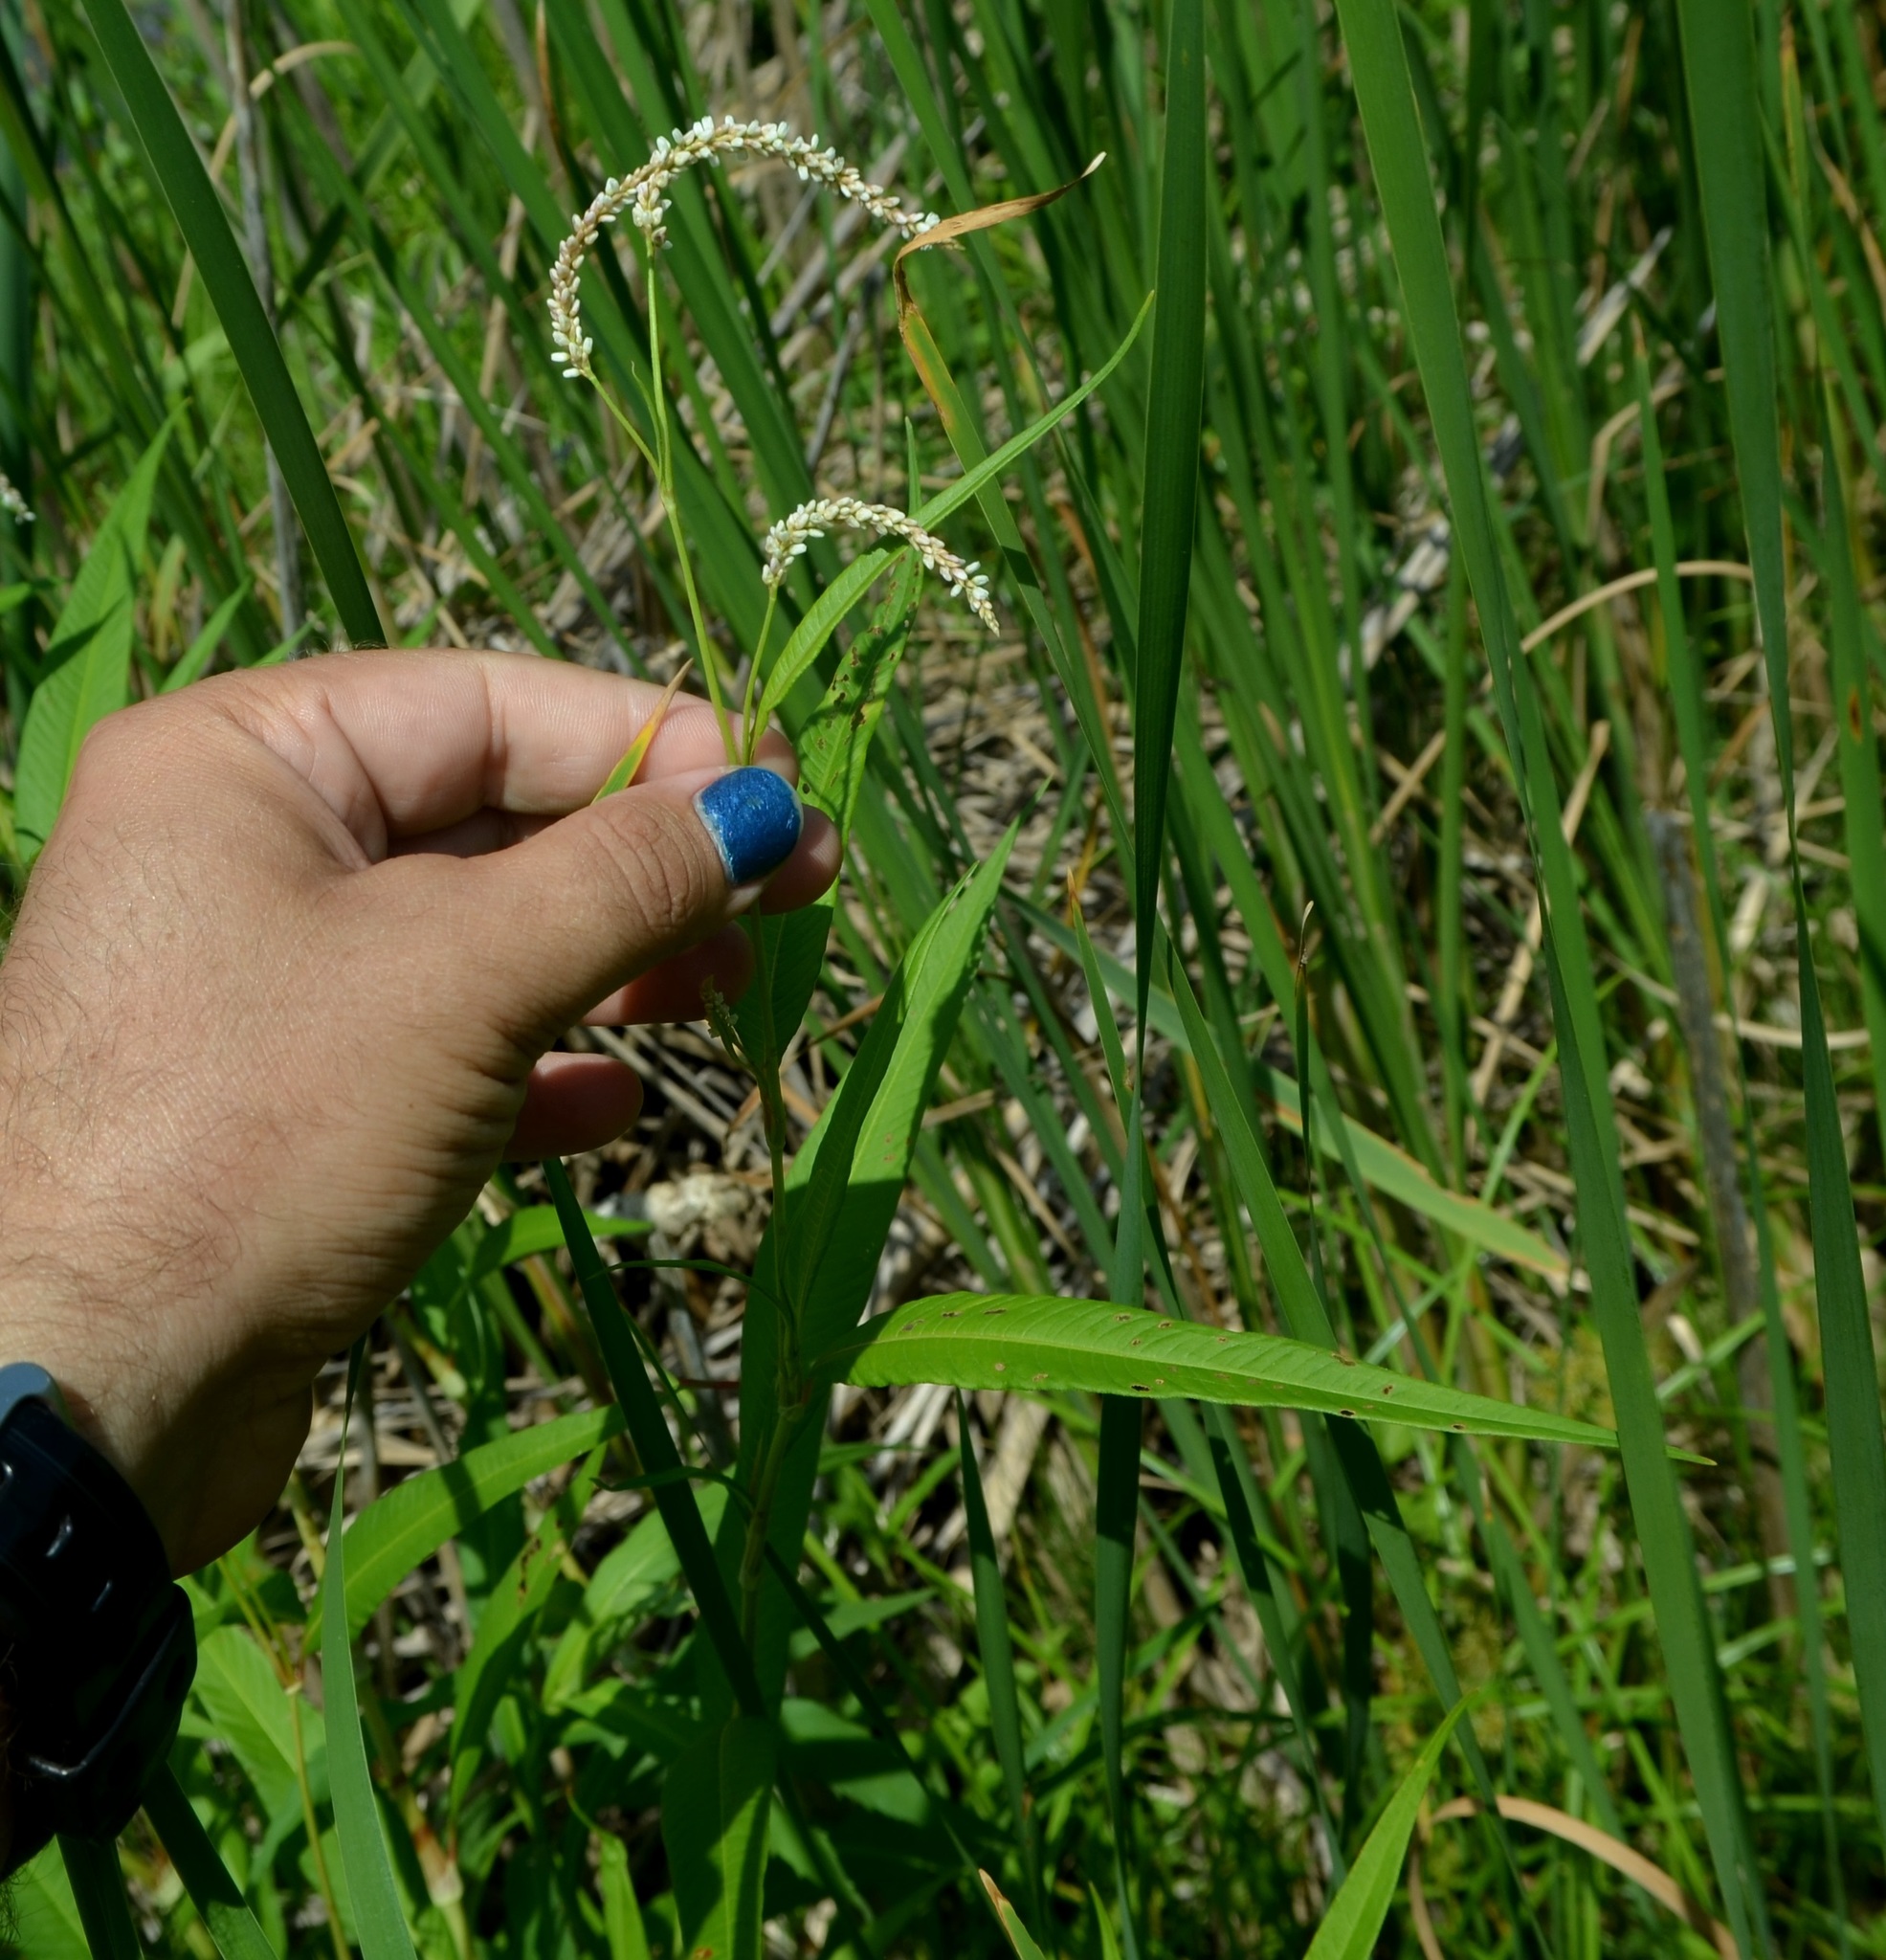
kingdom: Plantae
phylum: Tracheophyta
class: Magnoliopsida
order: Caryophyllales
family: Polygonaceae
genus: Persicaria
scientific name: Persicaria lapathifolia
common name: Curlytop knotweed
